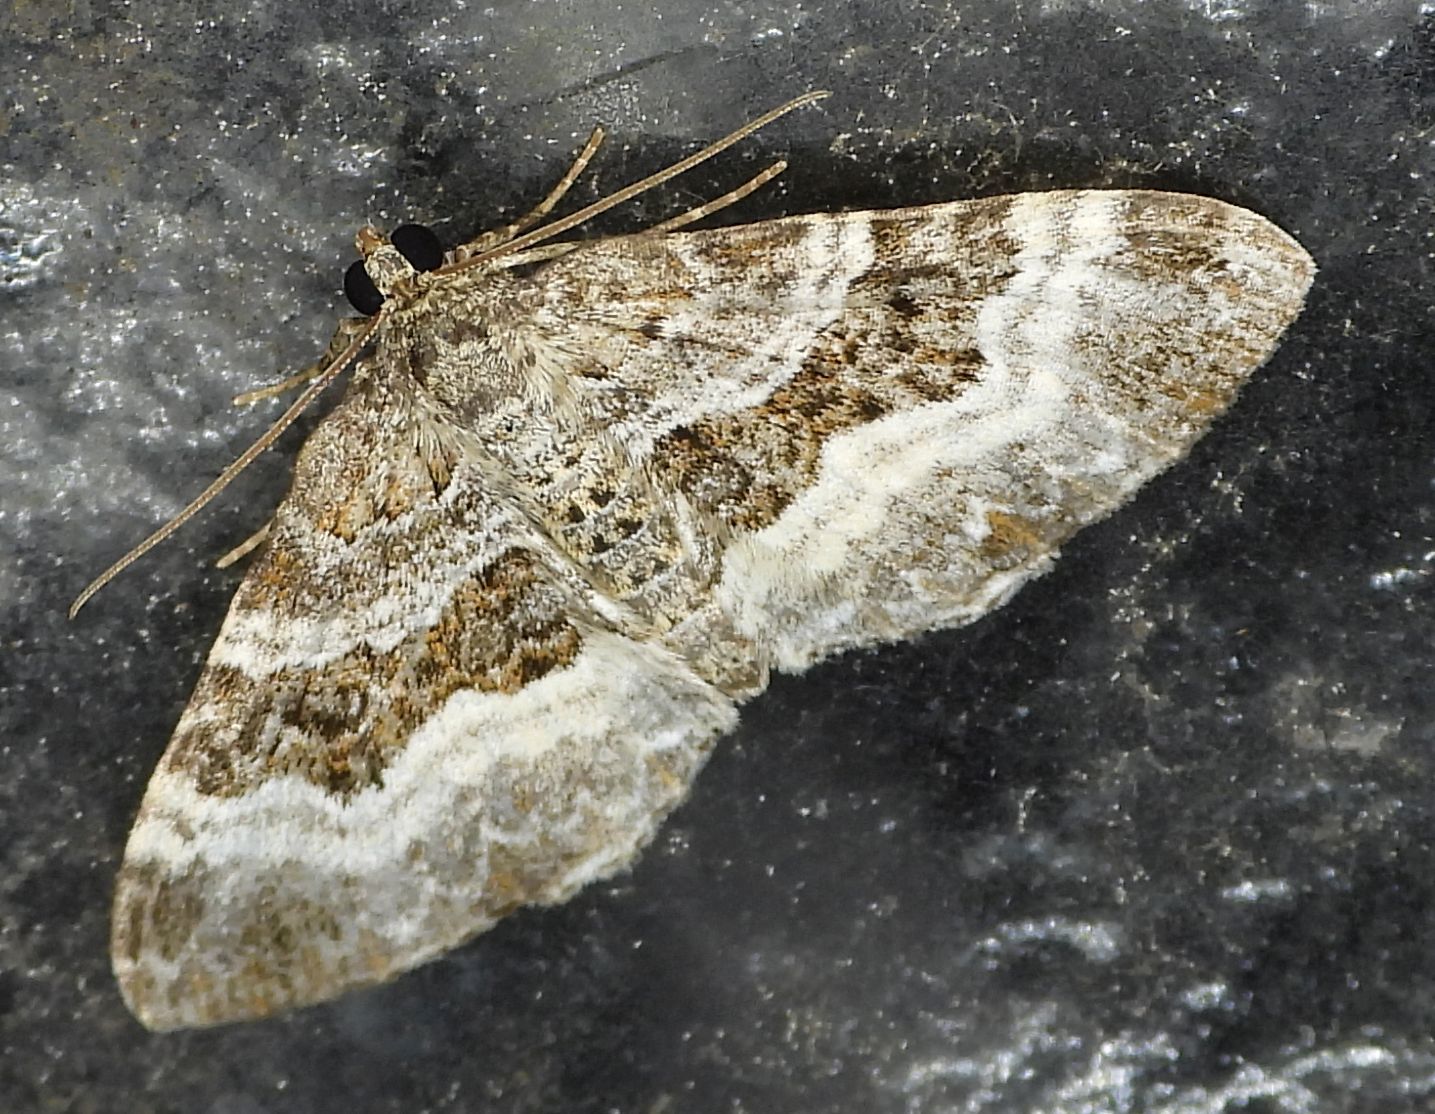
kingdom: Animalia
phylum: Arthropoda
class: Insecta
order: Lepidoptera
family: Geometridae
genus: Epirrhoe
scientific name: Epirrhoe alternata
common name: Common carpet
